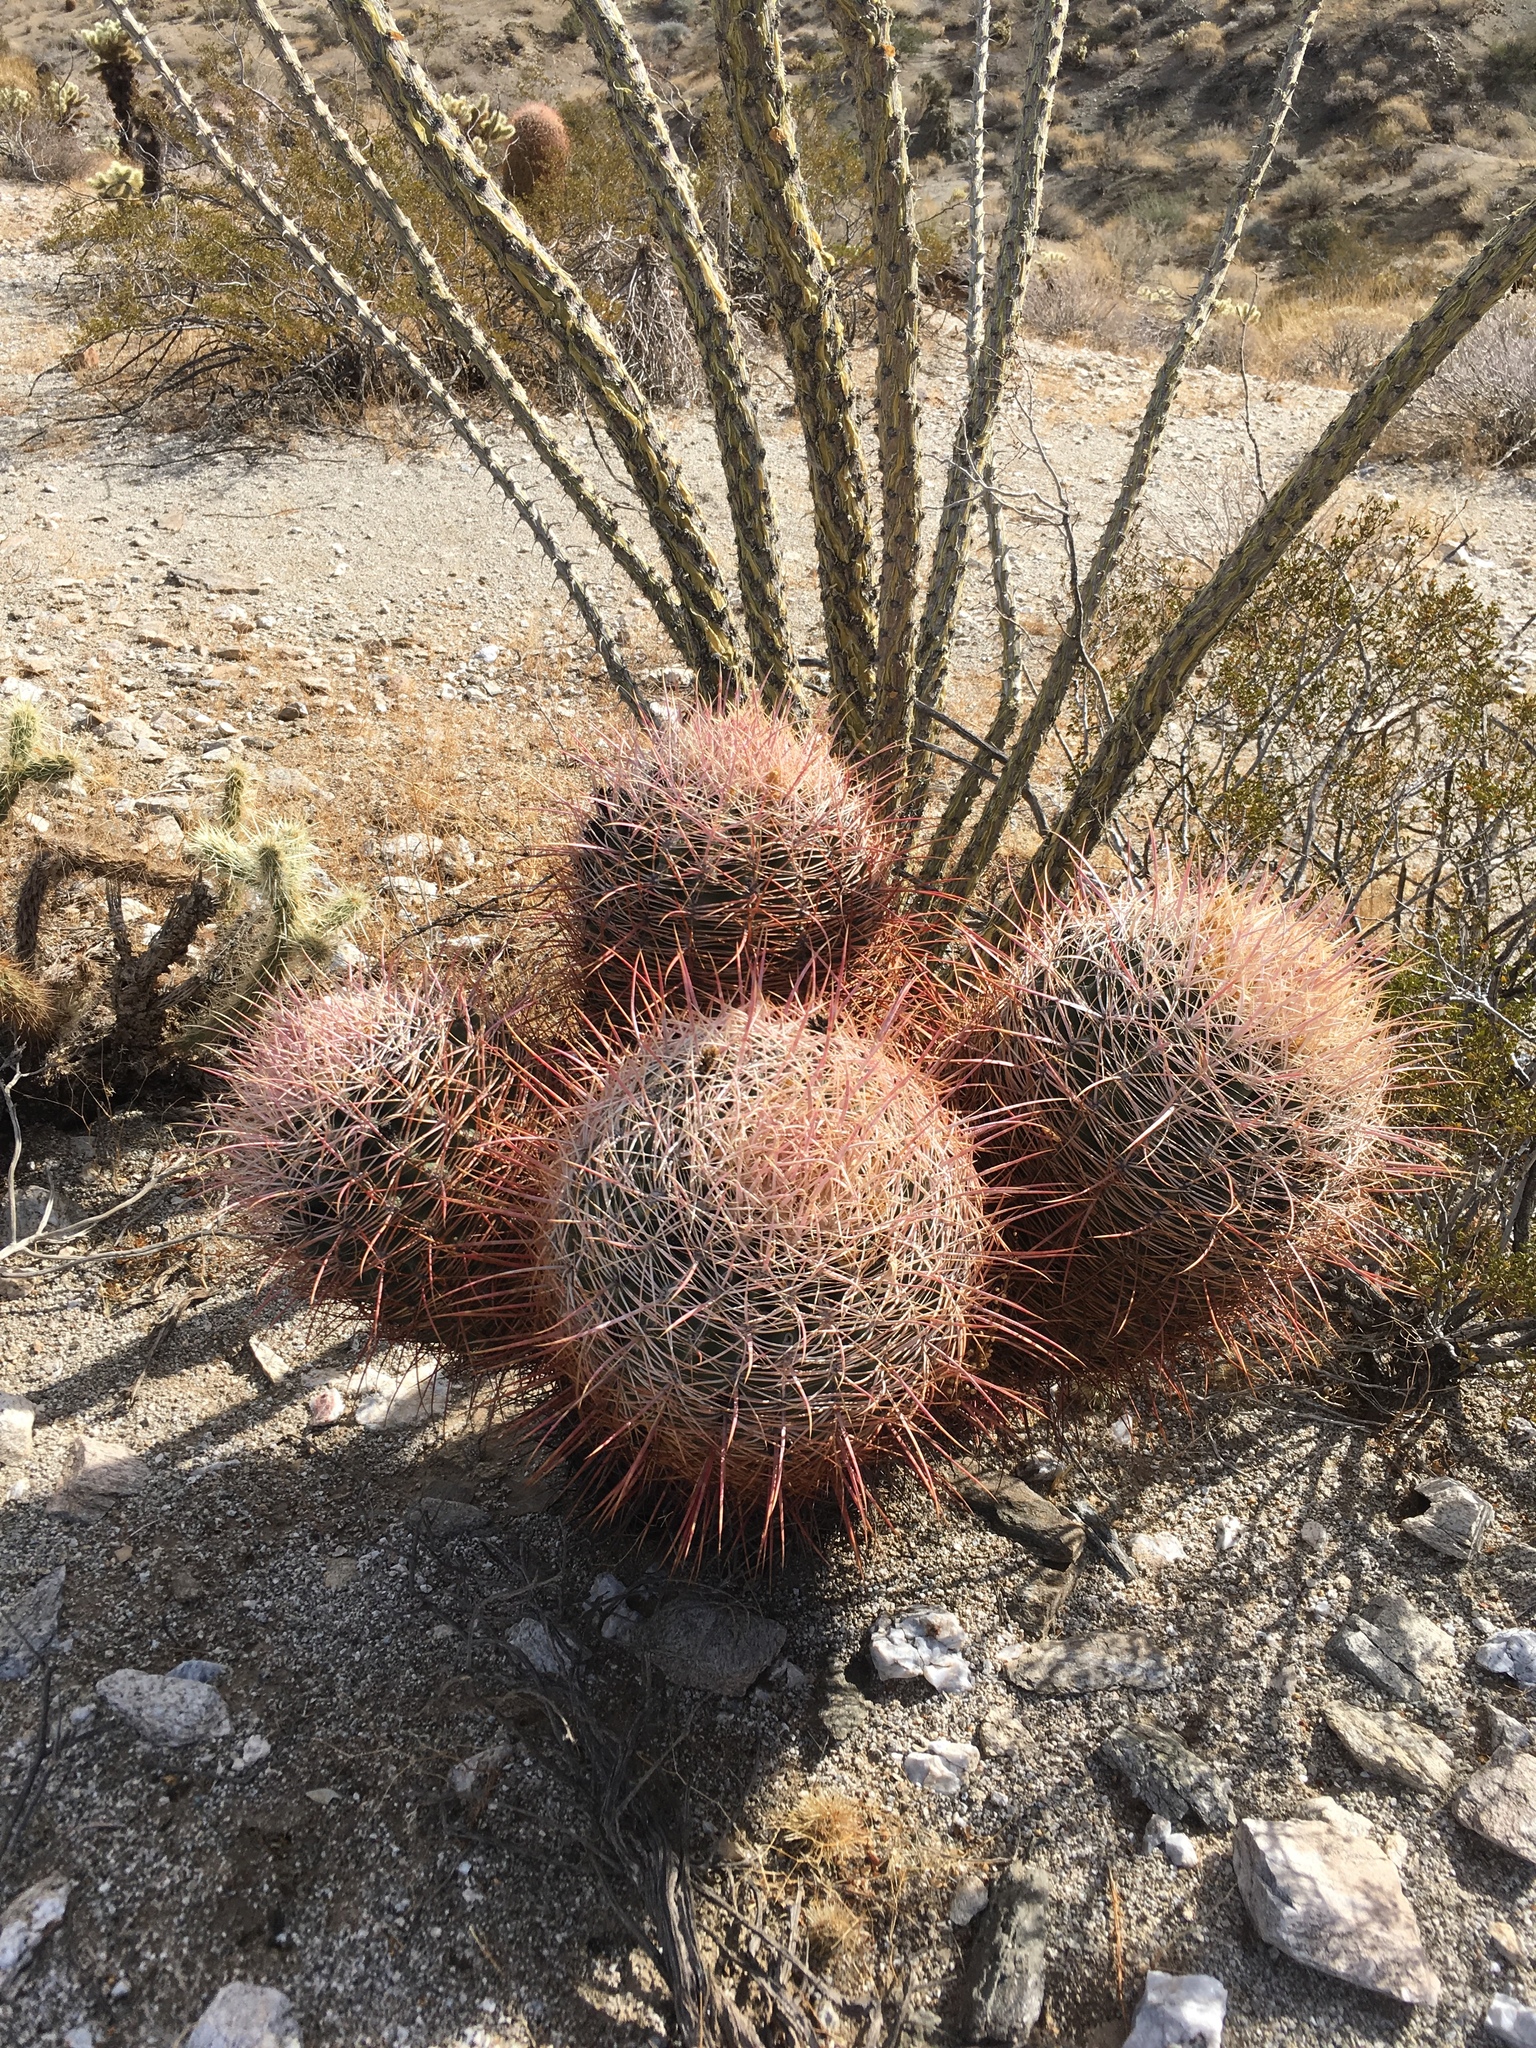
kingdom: Plantae
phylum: Tracheophyta
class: Magnoliopsida
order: Caryophyllales
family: Cactaceae
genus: Ferocactus
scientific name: Ferocactus cylindraceus
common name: California barrel cactus
